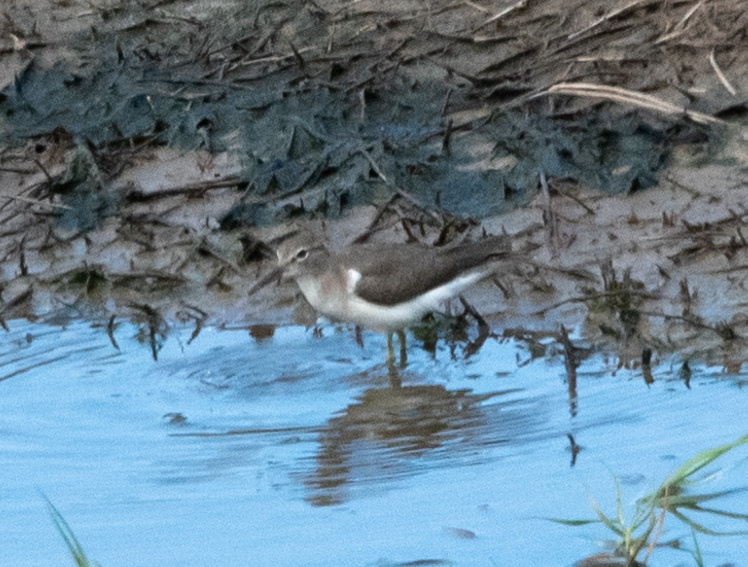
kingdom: Animalia
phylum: Chordata
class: Aves
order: Charadriiformes
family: Scolopacidae
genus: Actitis
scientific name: Actitis macularius
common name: Spotted sandpiper
